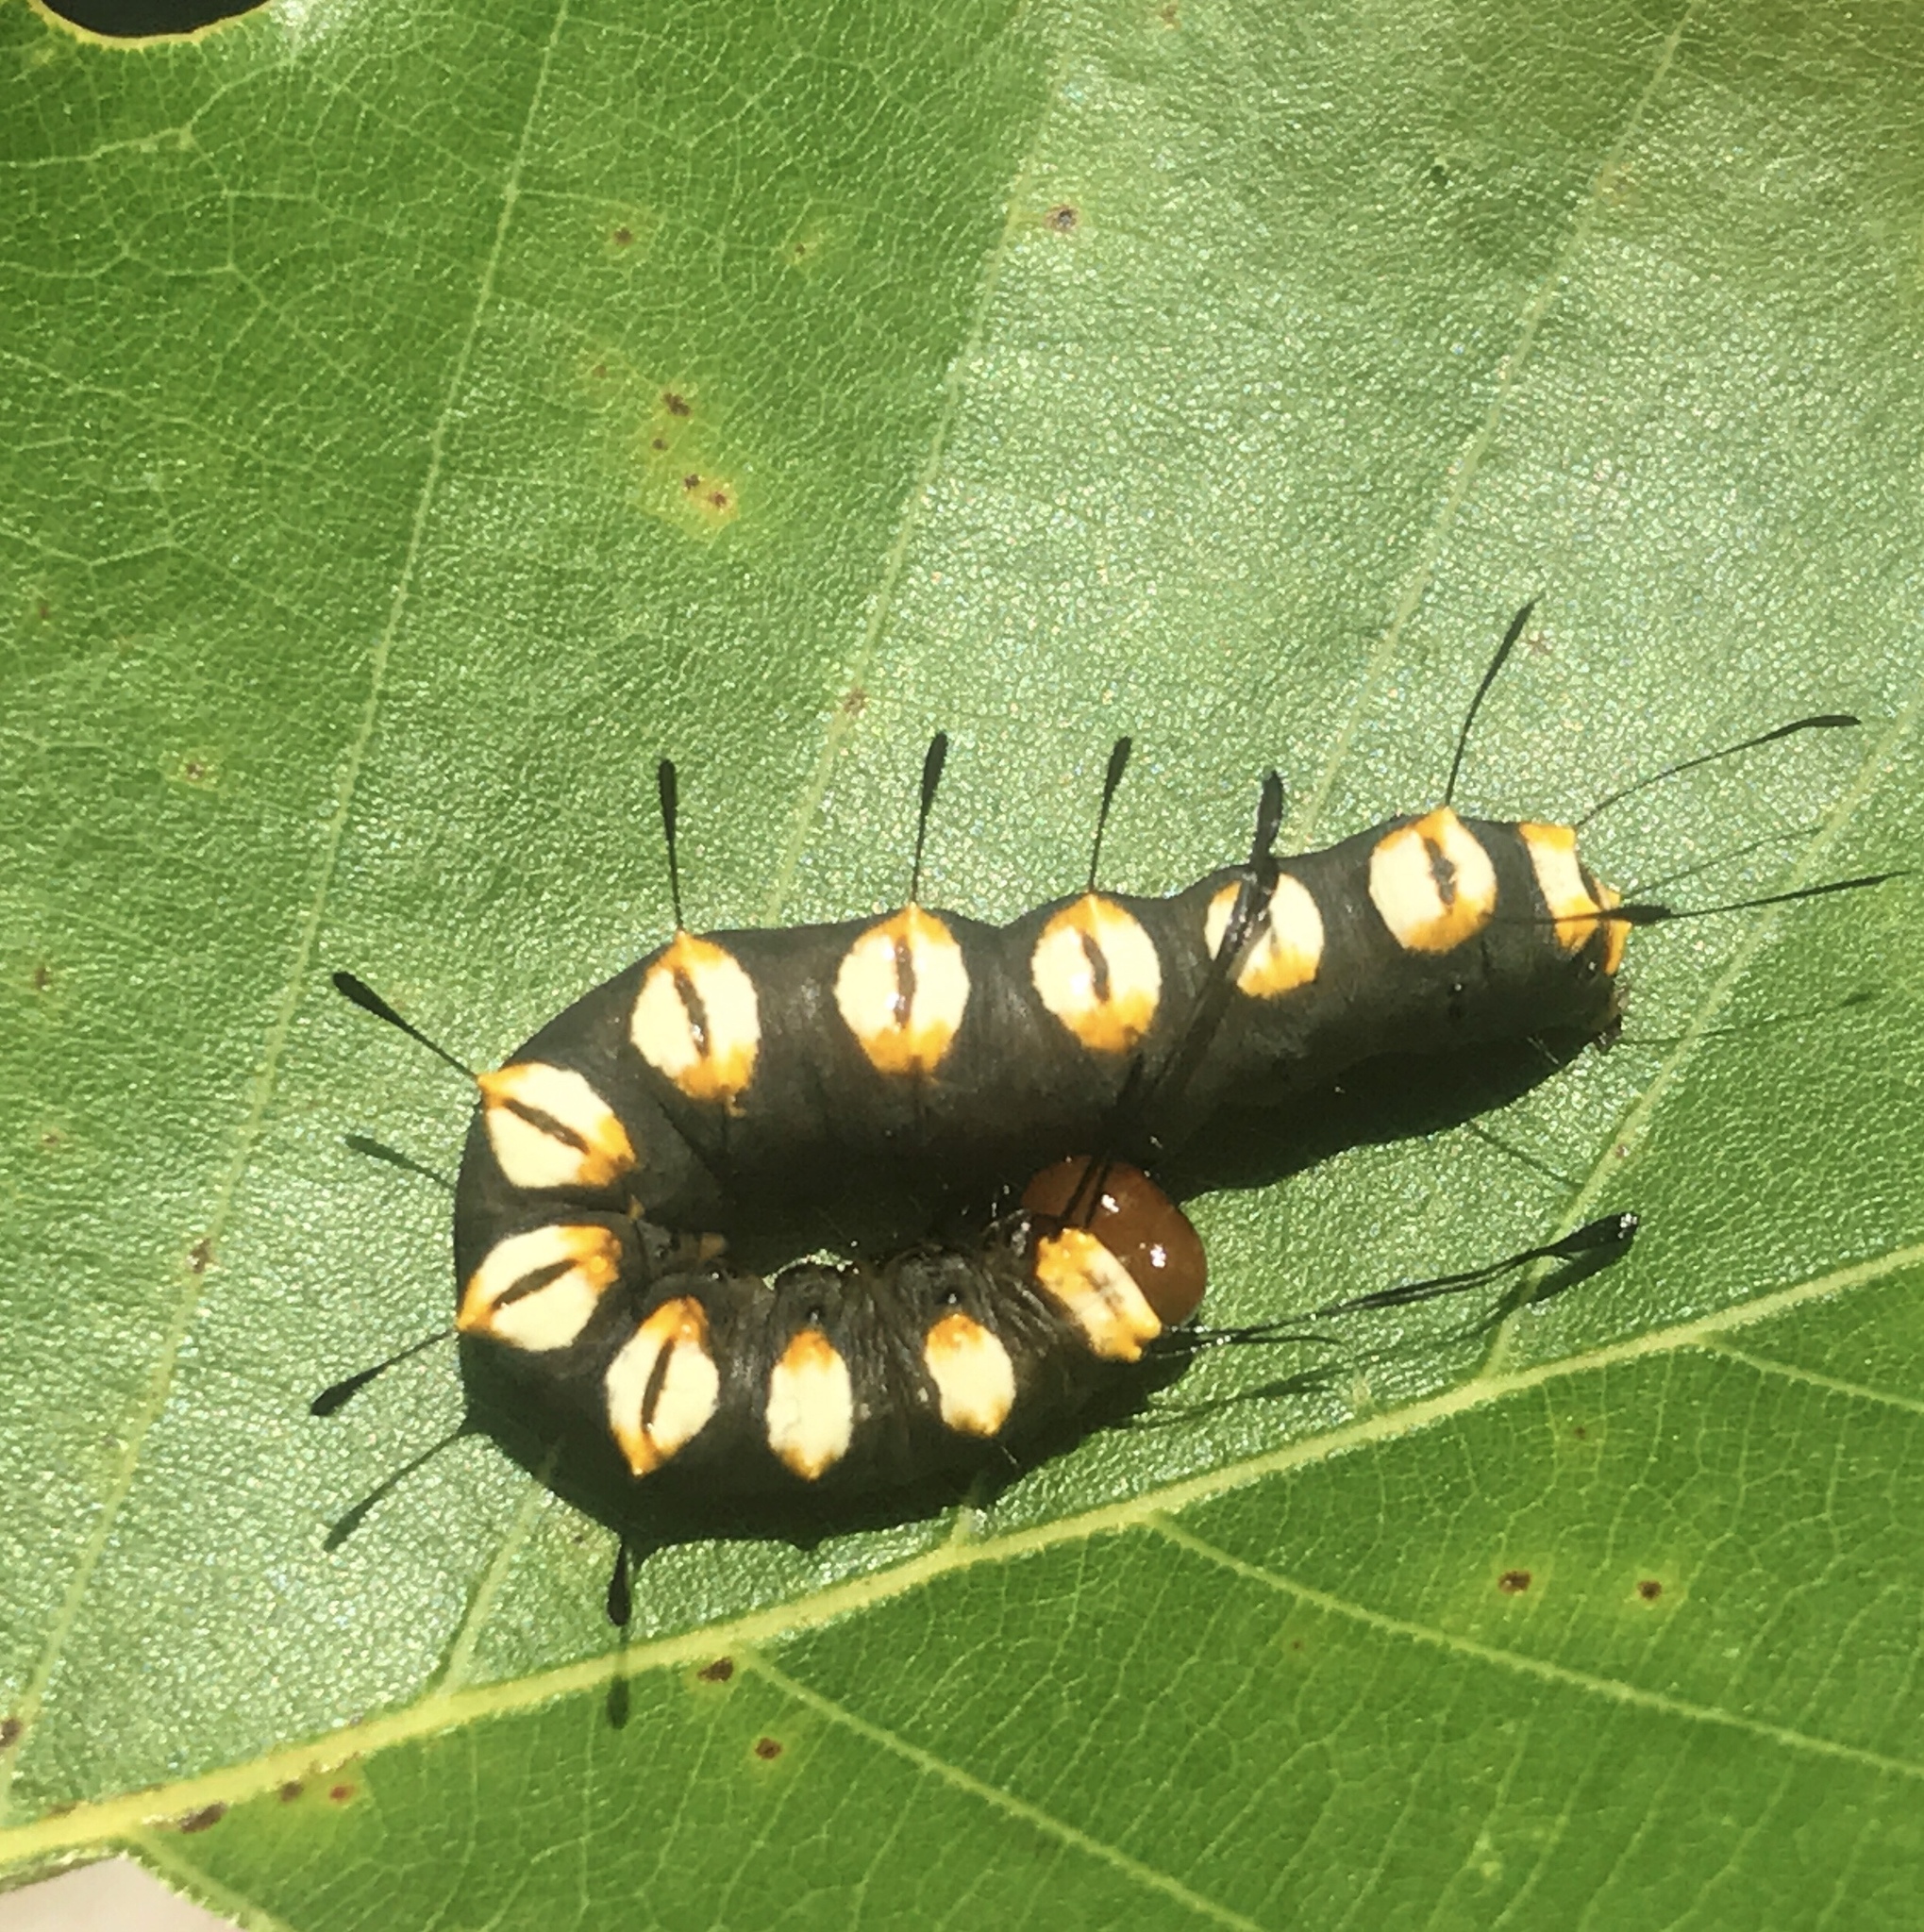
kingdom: Animalia
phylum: Arthropoda
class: Insecta
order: Lepidoptera
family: Noctuidae
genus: Acronicta
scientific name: Acronicta funeralis
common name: Funerary dagger
